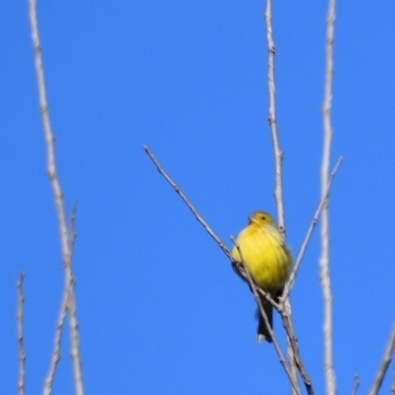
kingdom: Animalia
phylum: Chordata
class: Aves
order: Passeriformes
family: Thraupidae
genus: Sicalis
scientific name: Sicalis flaveola
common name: Saffron finch
